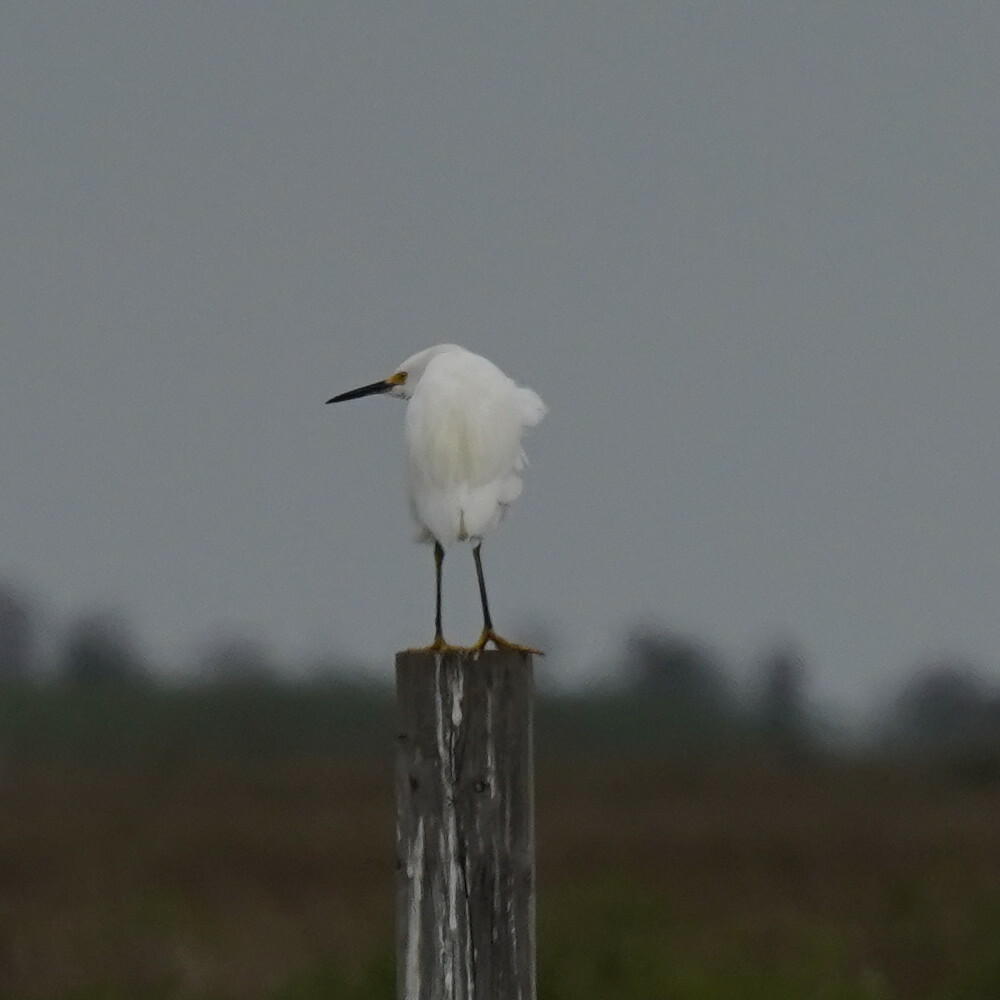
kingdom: Animalia
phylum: Chordata
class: Aves
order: Pelecaniformes
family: Ardeidae
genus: Egretta
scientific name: Egretta thula
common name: Snowy egret
